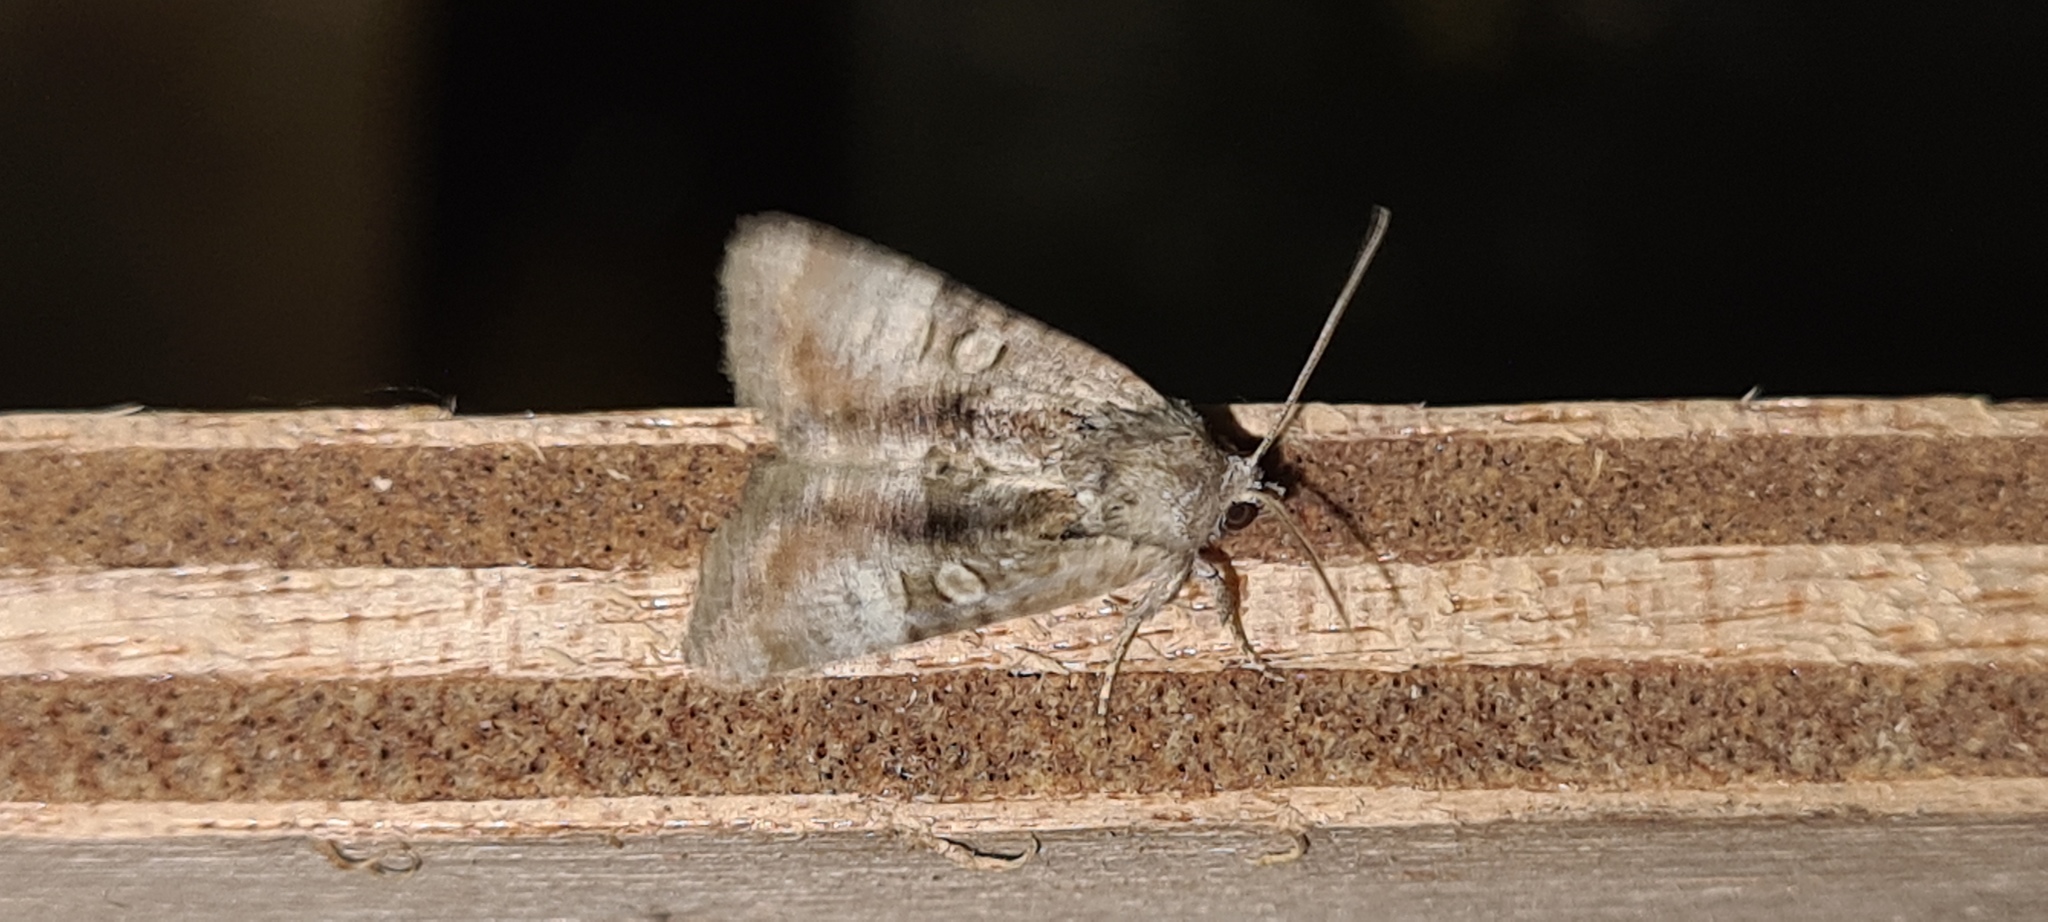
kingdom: Animalia
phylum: Arthropoda
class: Insecta
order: Lepidoptera
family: Noctuidae
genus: Mesoligia
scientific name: Mesoligia furuncula
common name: Cloaked minor
